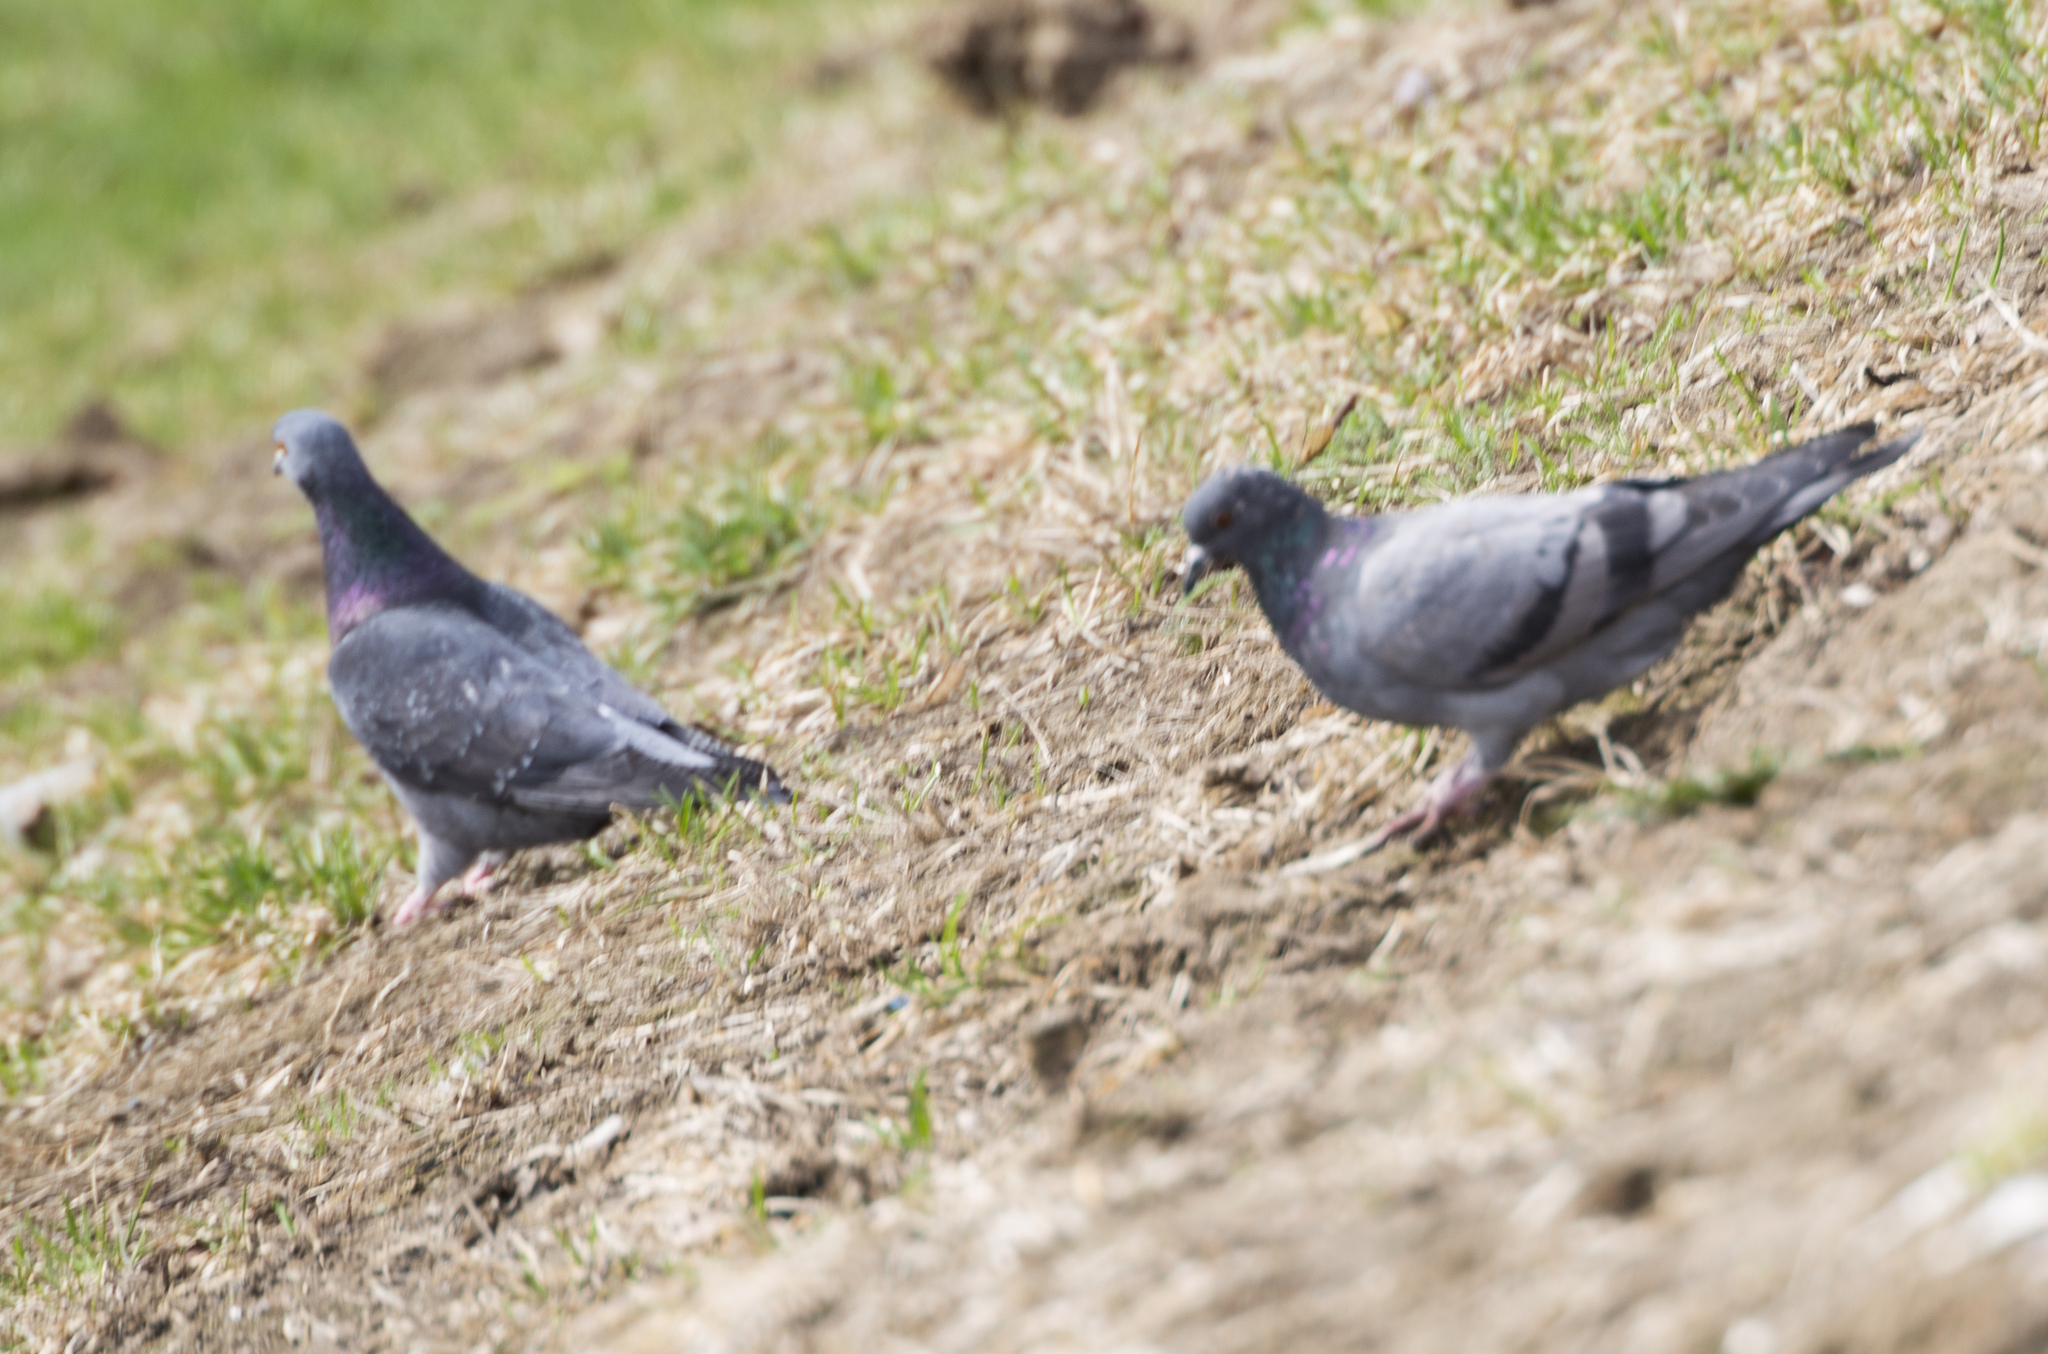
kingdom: Animalia
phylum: Chordata
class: Aves
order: Columbiformes
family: Columbidae
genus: Columba
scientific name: Columba livia
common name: Rock pigeon
